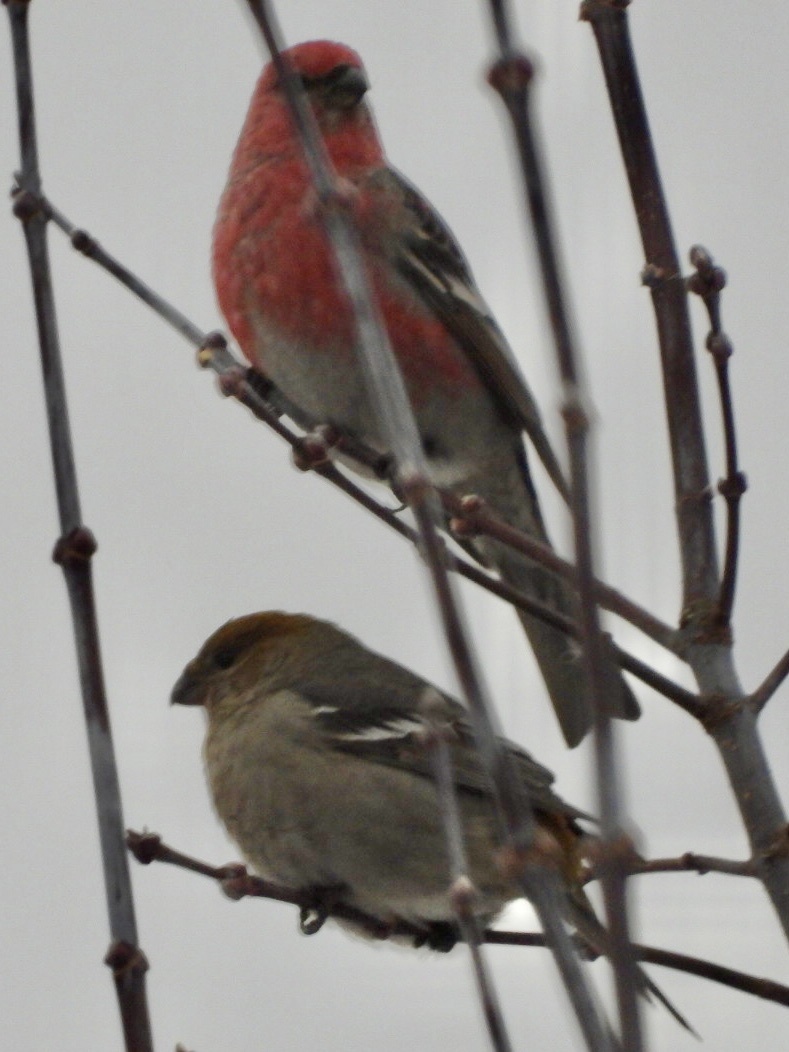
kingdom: Animalia
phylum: Chordata
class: Aves
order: Passeriformes
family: Fringillidae
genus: Pinicola
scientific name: Pinicola enucleator
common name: Pine grosbeak
